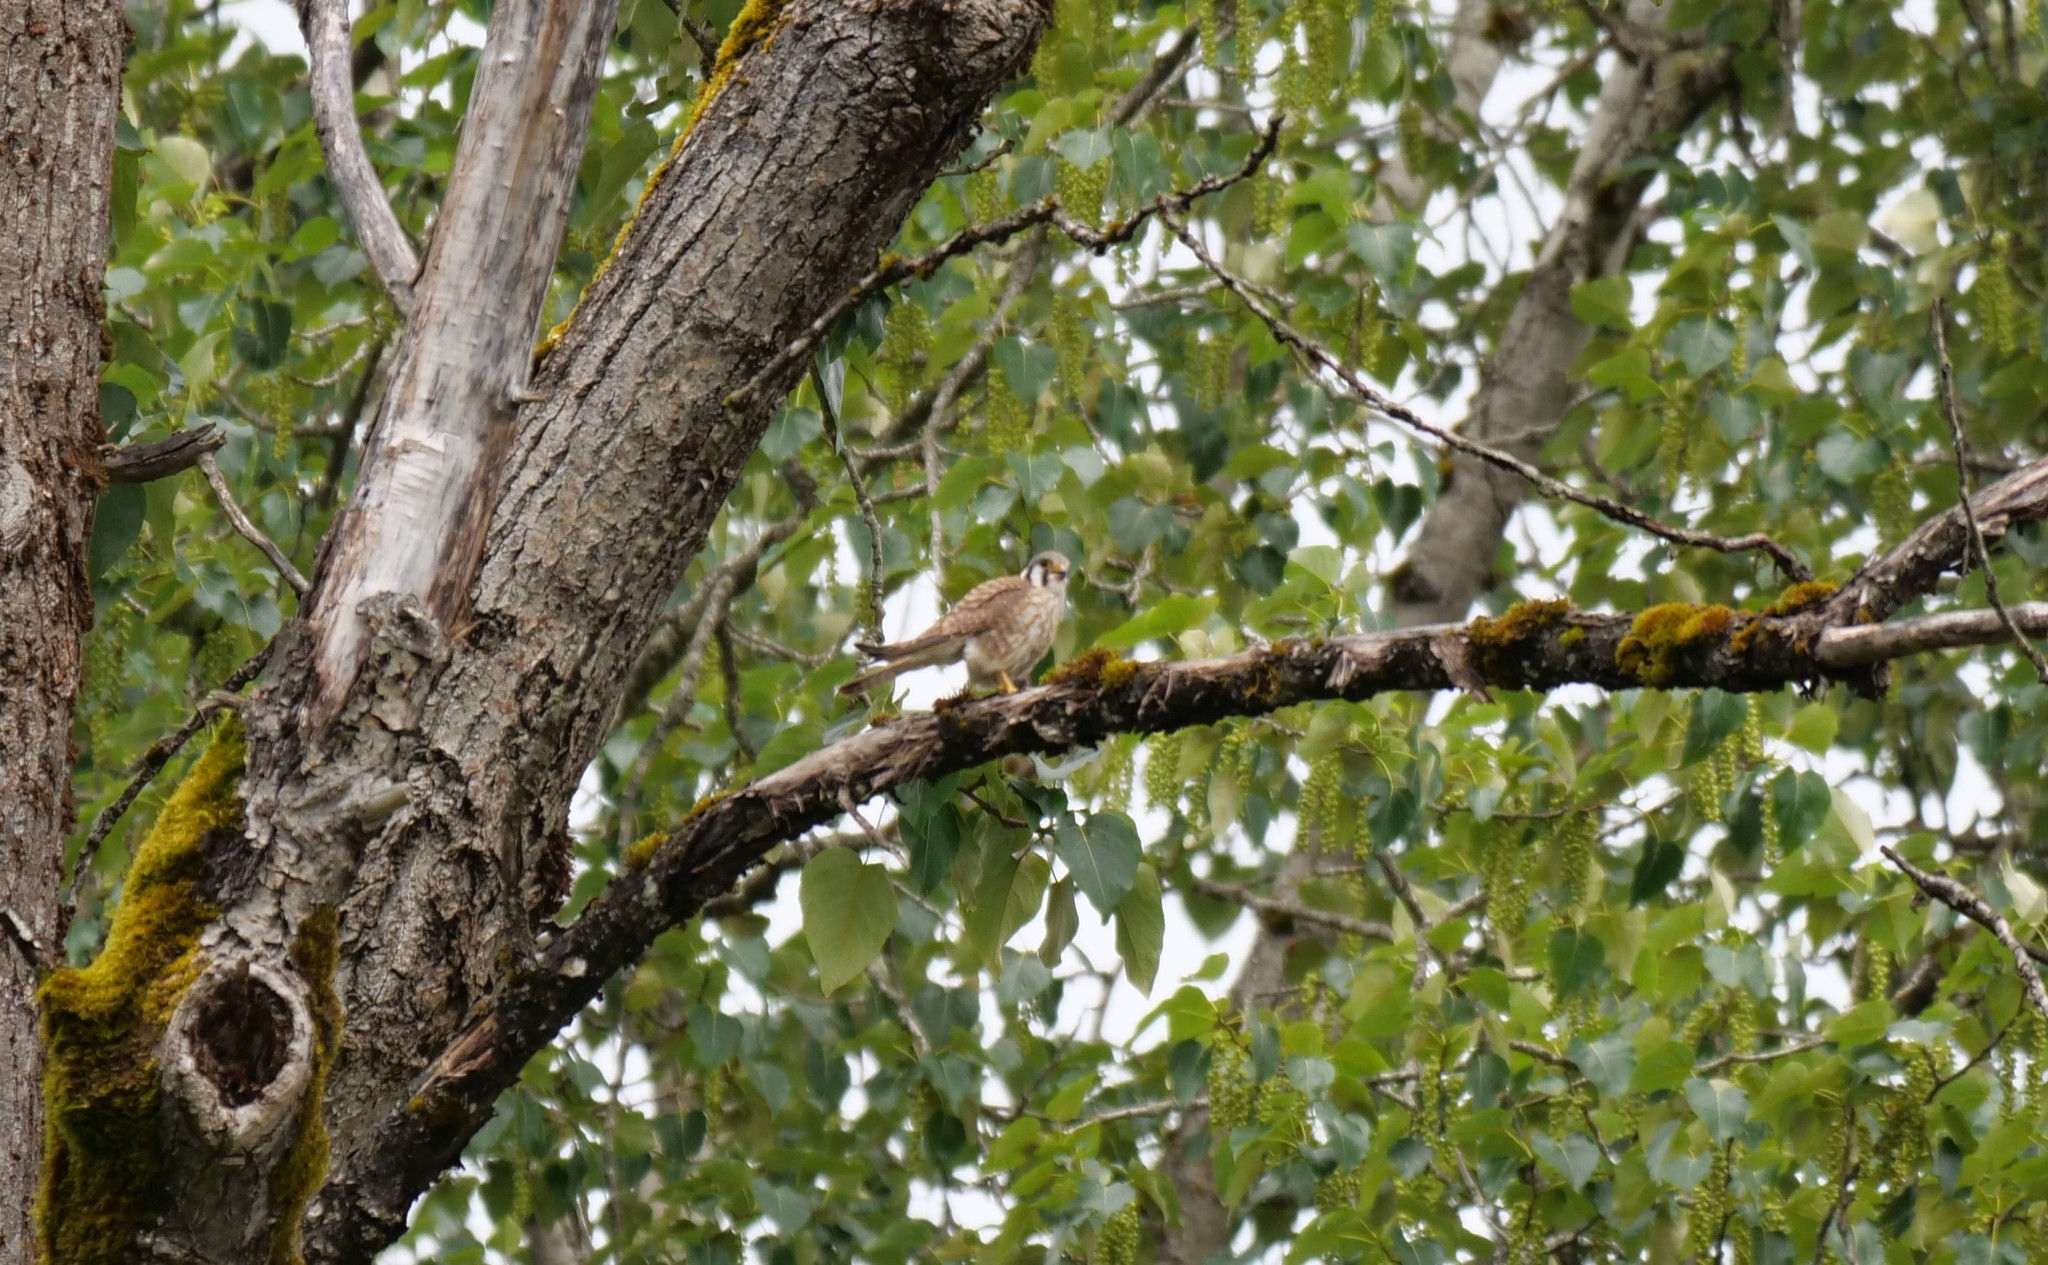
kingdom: Animalia
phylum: Chordata
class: Aves
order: Falconiformes
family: Falconidae
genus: Falco
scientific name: Falco sparverius
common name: American kestrel
